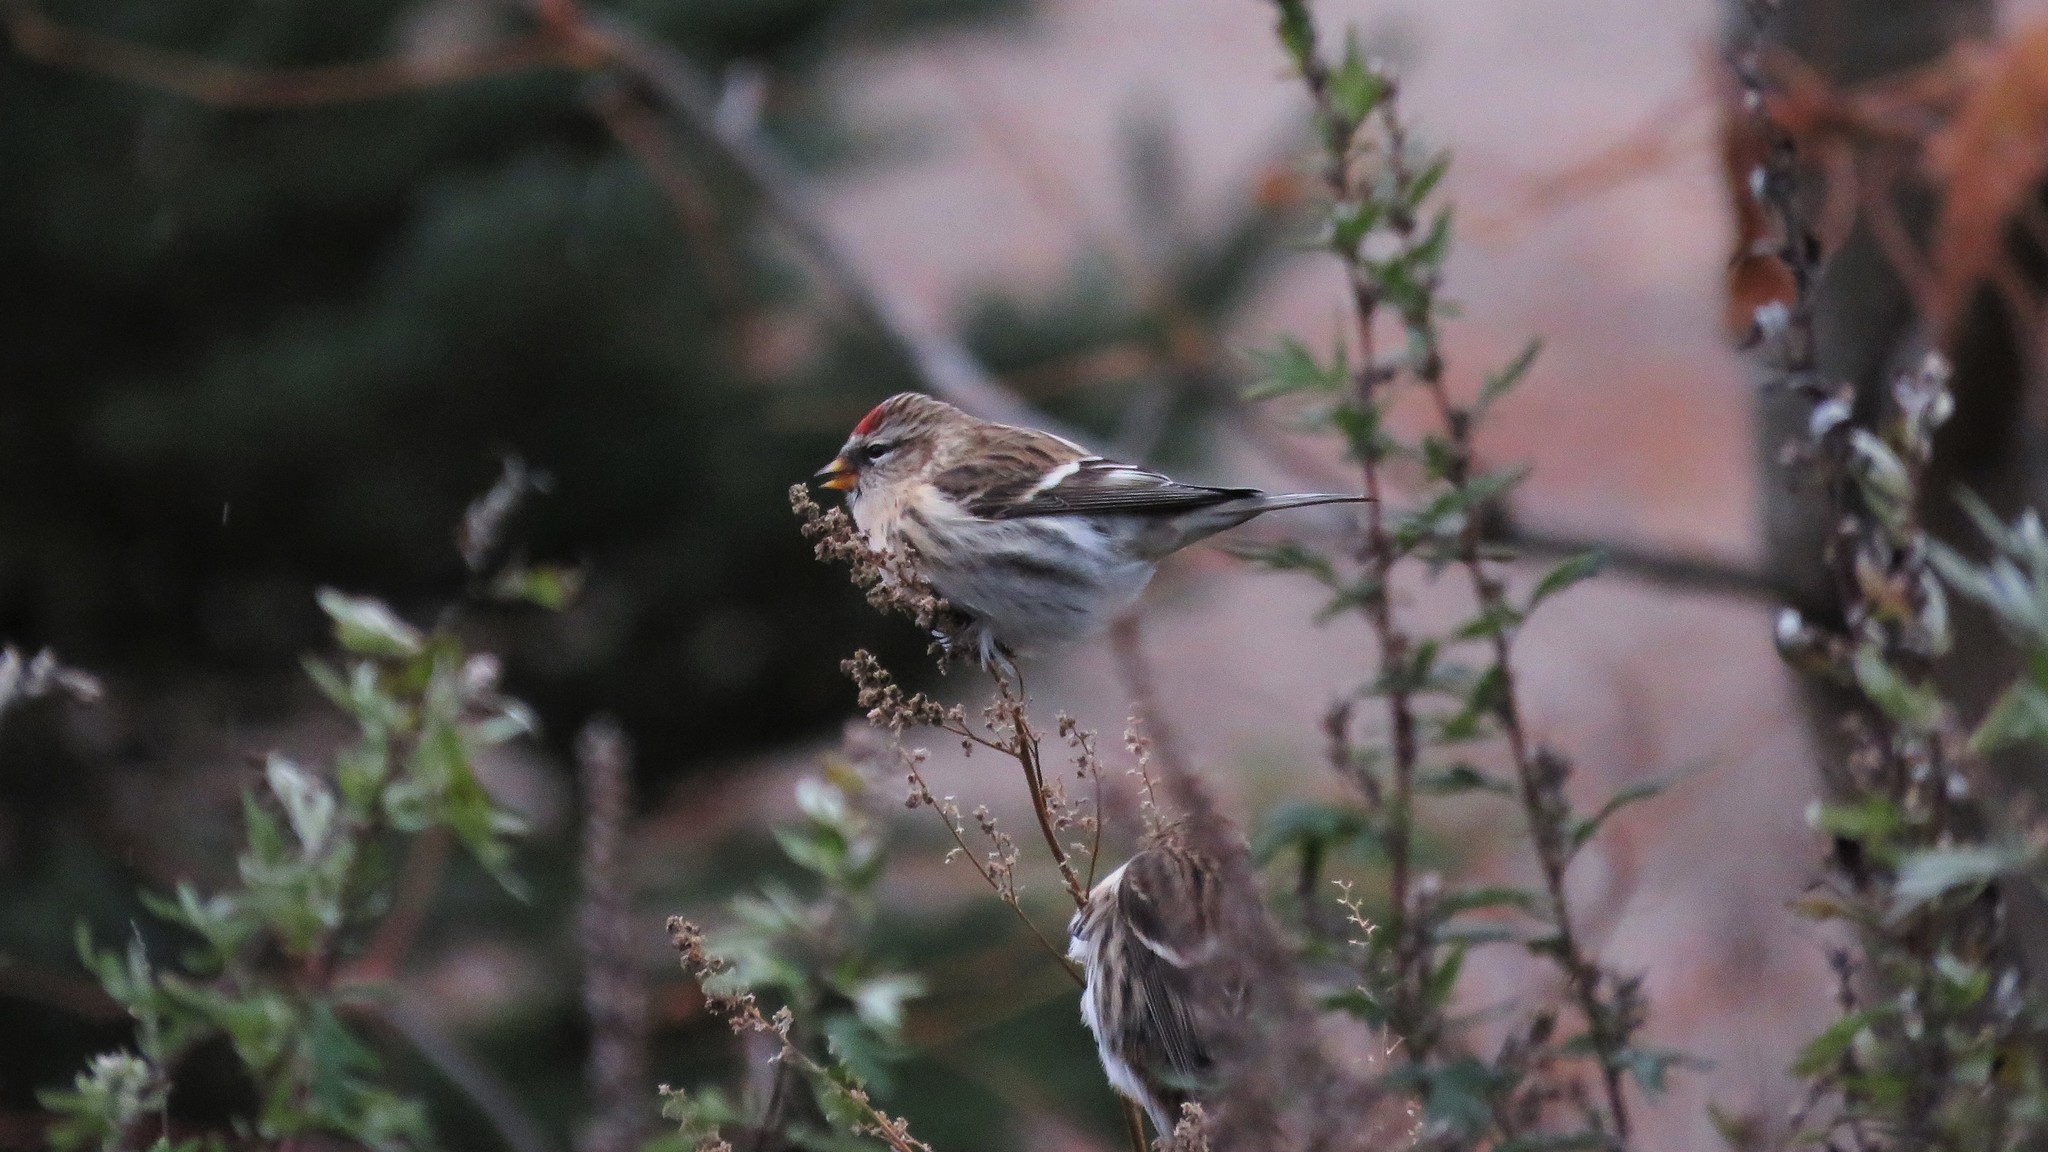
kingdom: Animalia
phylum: Chordata
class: Aves
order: Passeriformes
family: Fringillidae
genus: Acanthis
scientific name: Acanthis flammea
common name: Common redpoll
